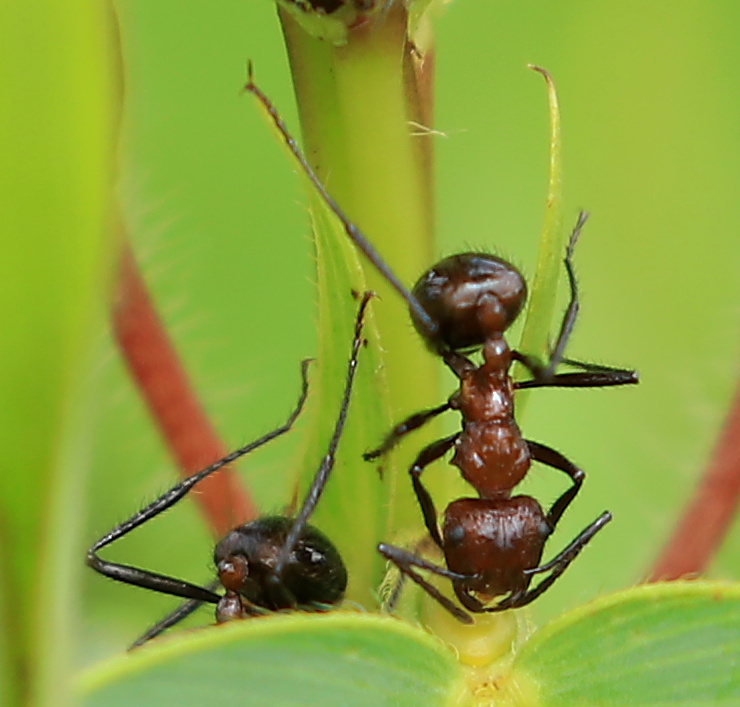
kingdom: Animalia
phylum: Arthropoda
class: Insecta
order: Hymenoptera
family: Formicidae
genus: Myrmicaria
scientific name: Myrmicaria natalensis
